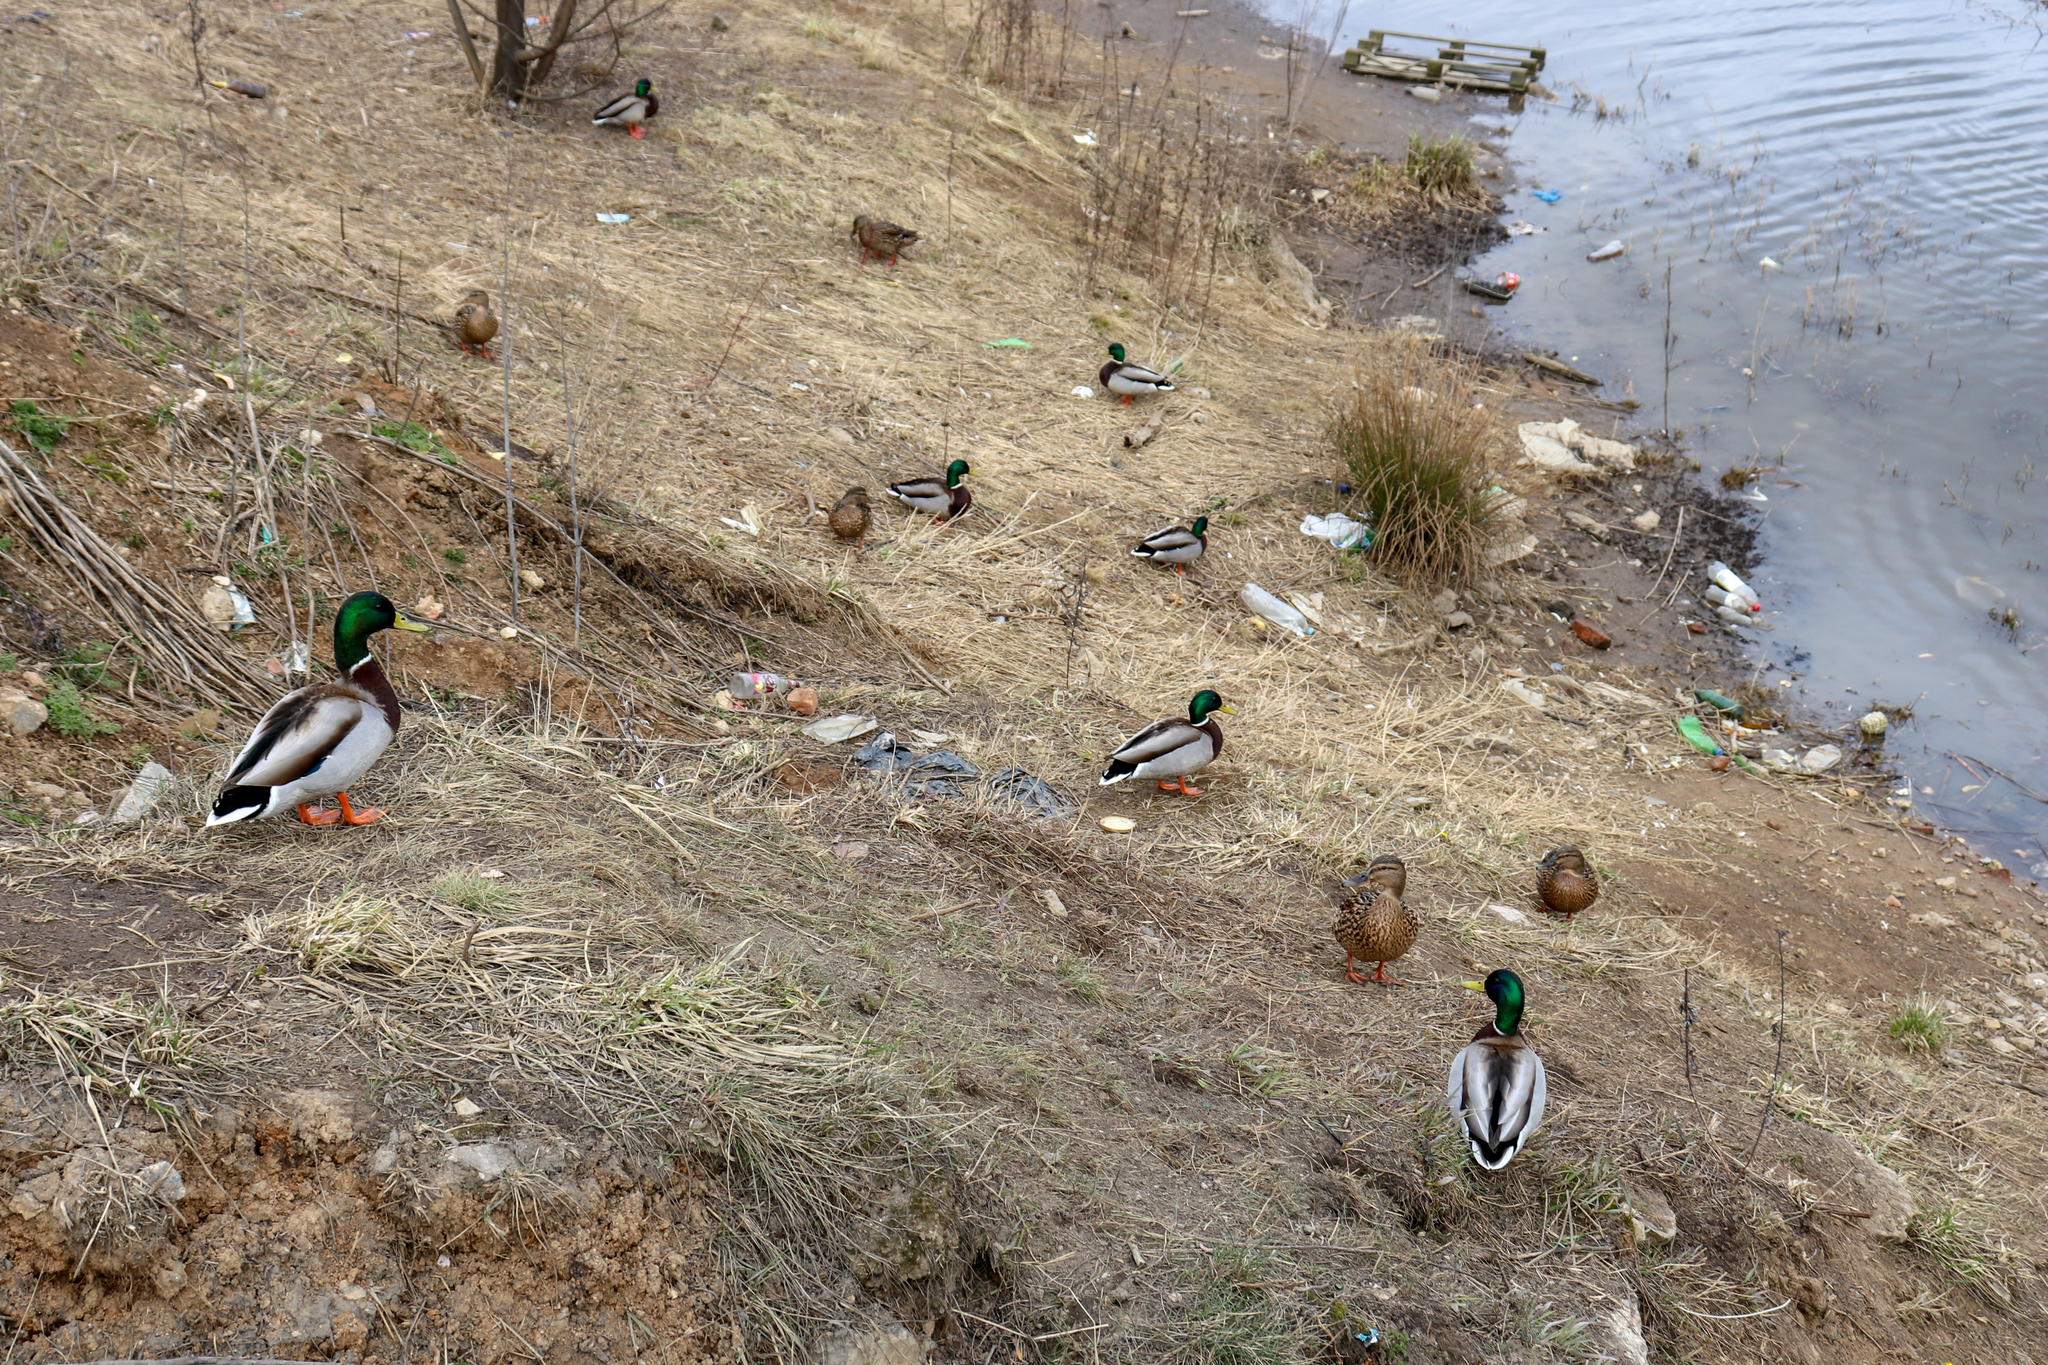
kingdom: Animalia
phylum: Chordata
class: Aves
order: Anseriformes
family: Anatidae
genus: Anas
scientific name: Anas platyrhynchos
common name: Mallard
